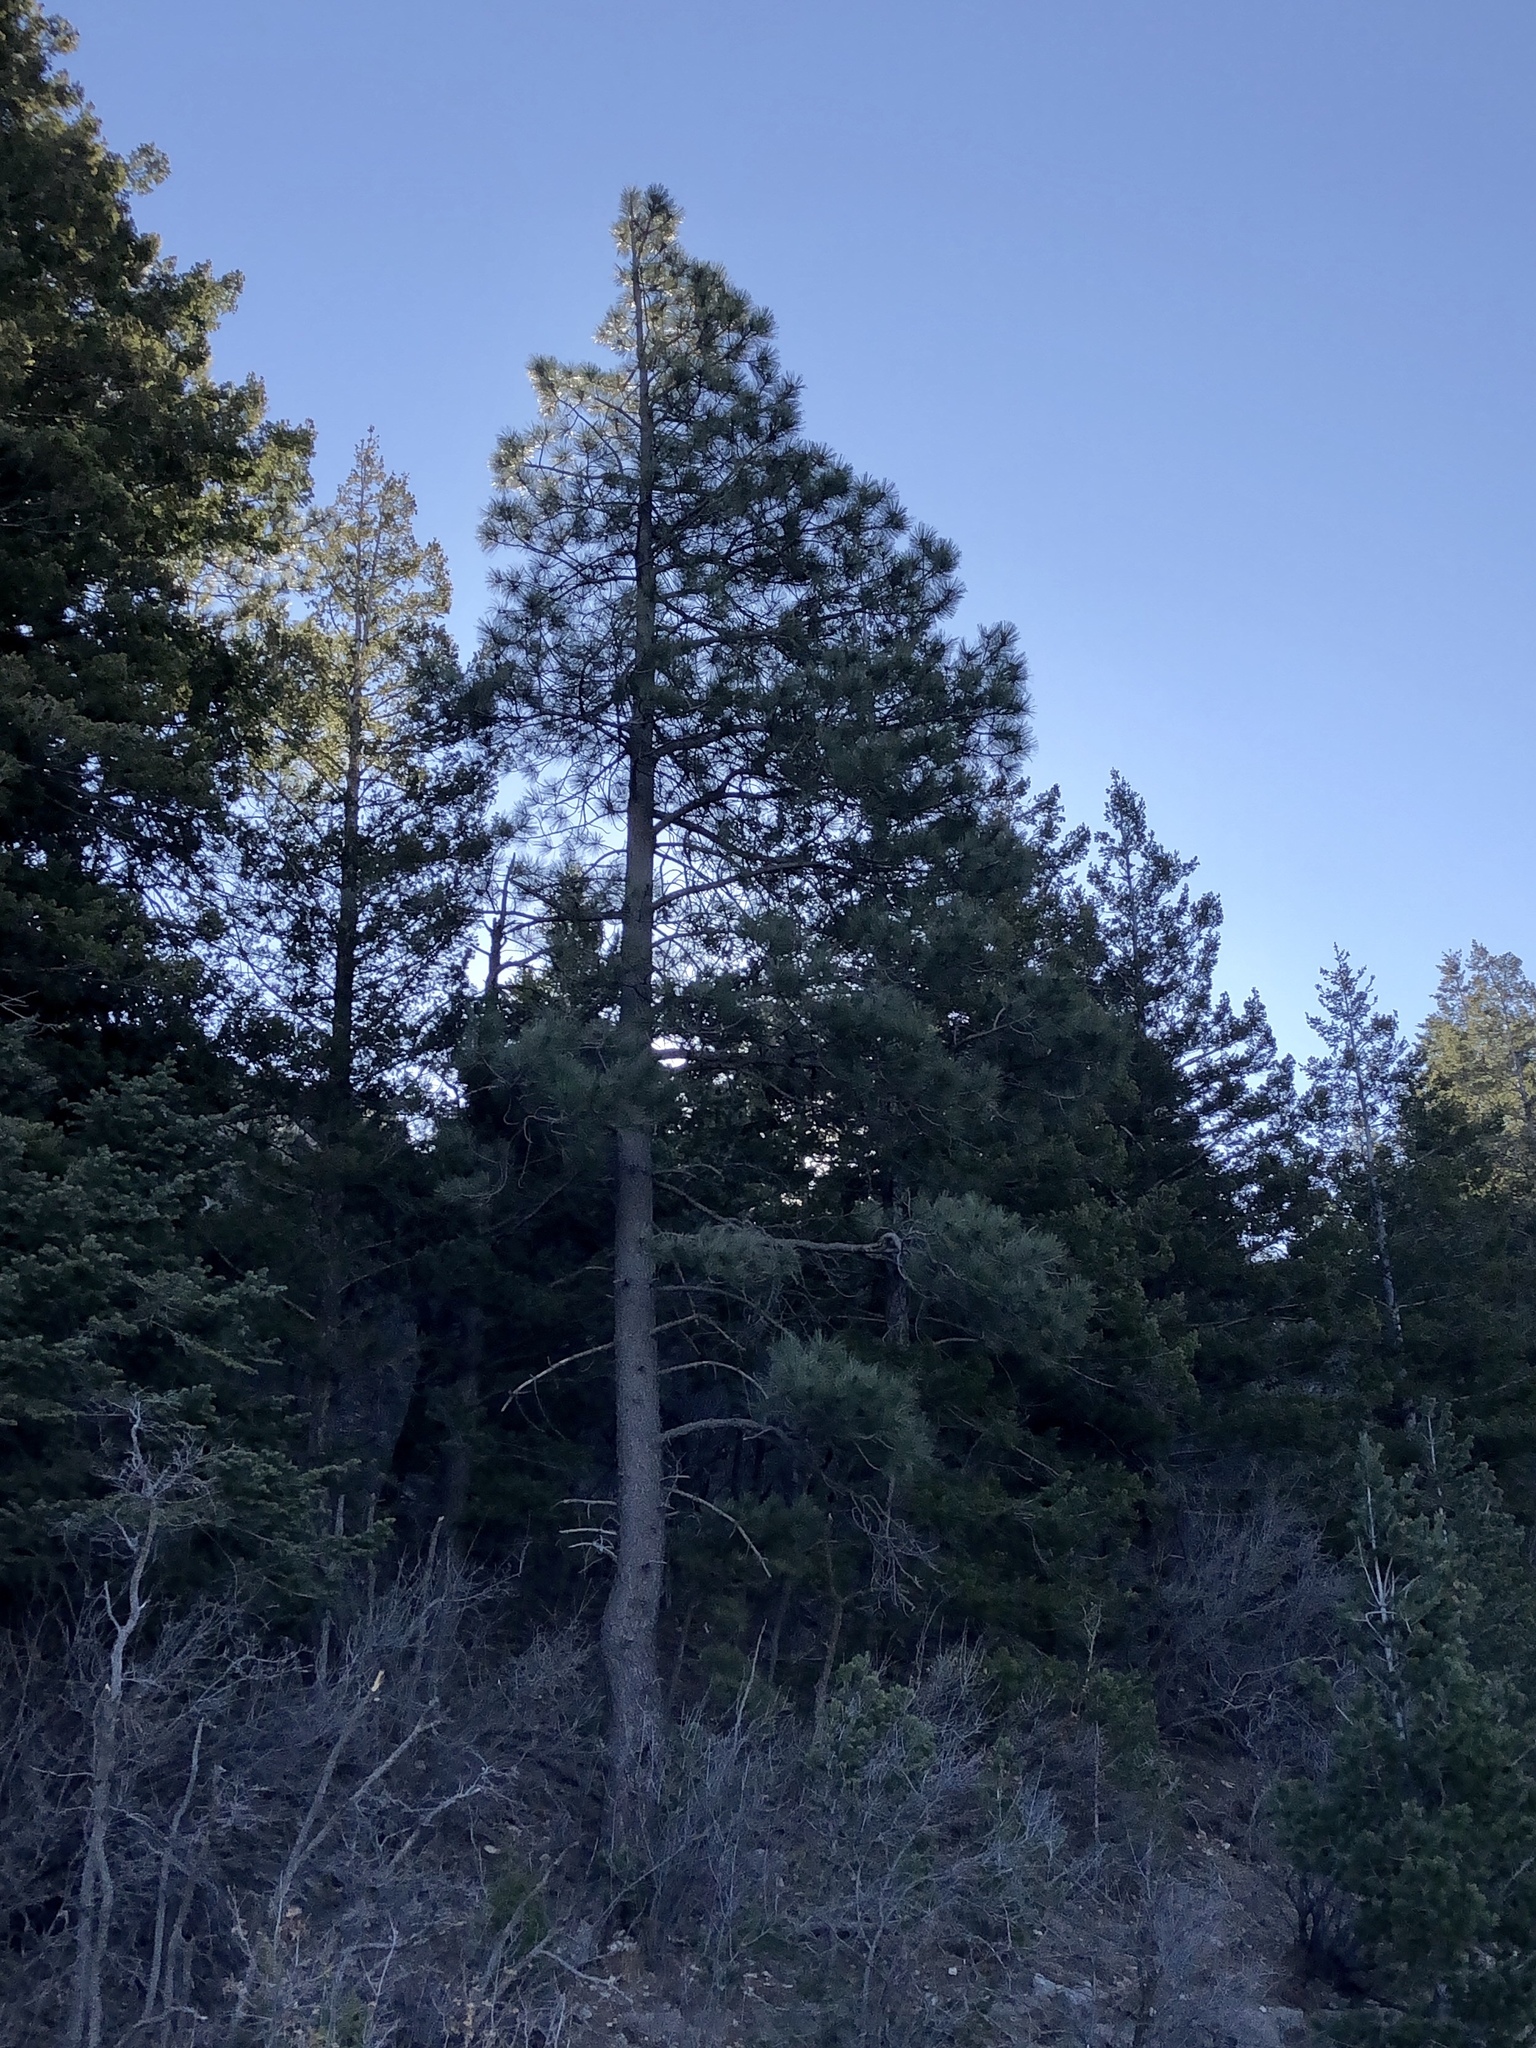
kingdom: Plantae
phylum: Tracheophyta
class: Pinopsida
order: Pinales
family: Pinaceae
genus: Pinus
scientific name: Pinus ponderosa
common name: Western yellow-pine
